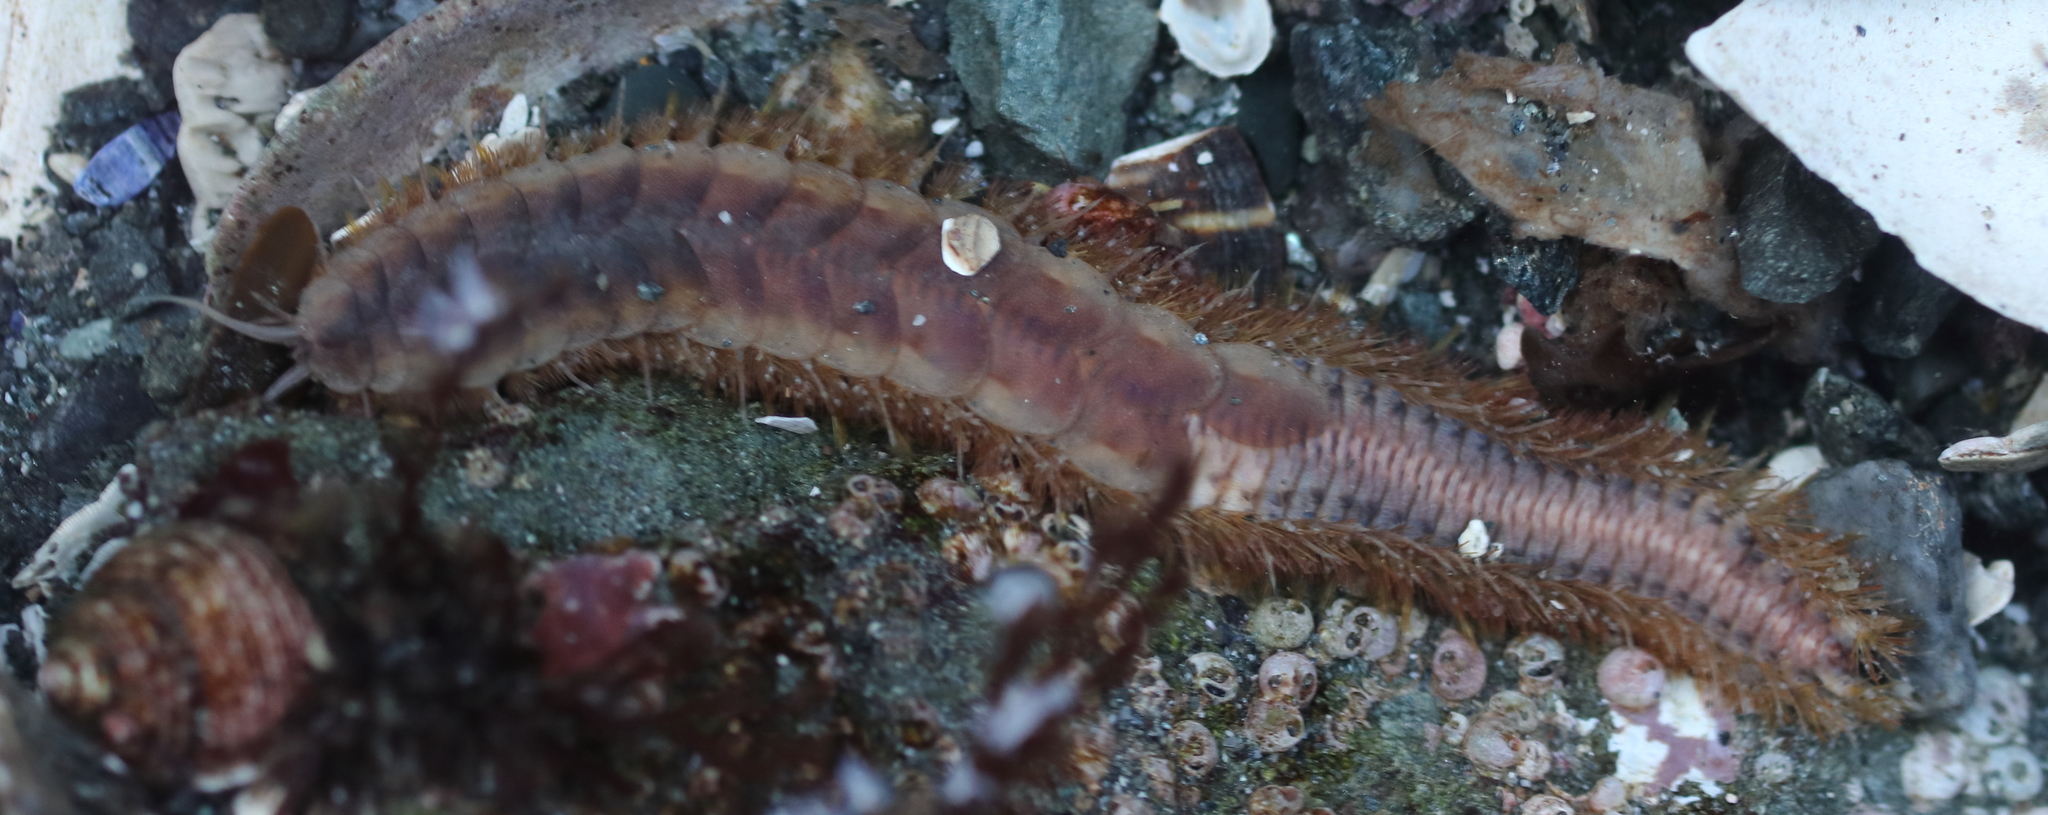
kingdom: Animalia
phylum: Annelida
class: Polychaeta
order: Phyllodocida
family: Polynoidae
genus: Hermadionella
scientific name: Hermadionella truncata
